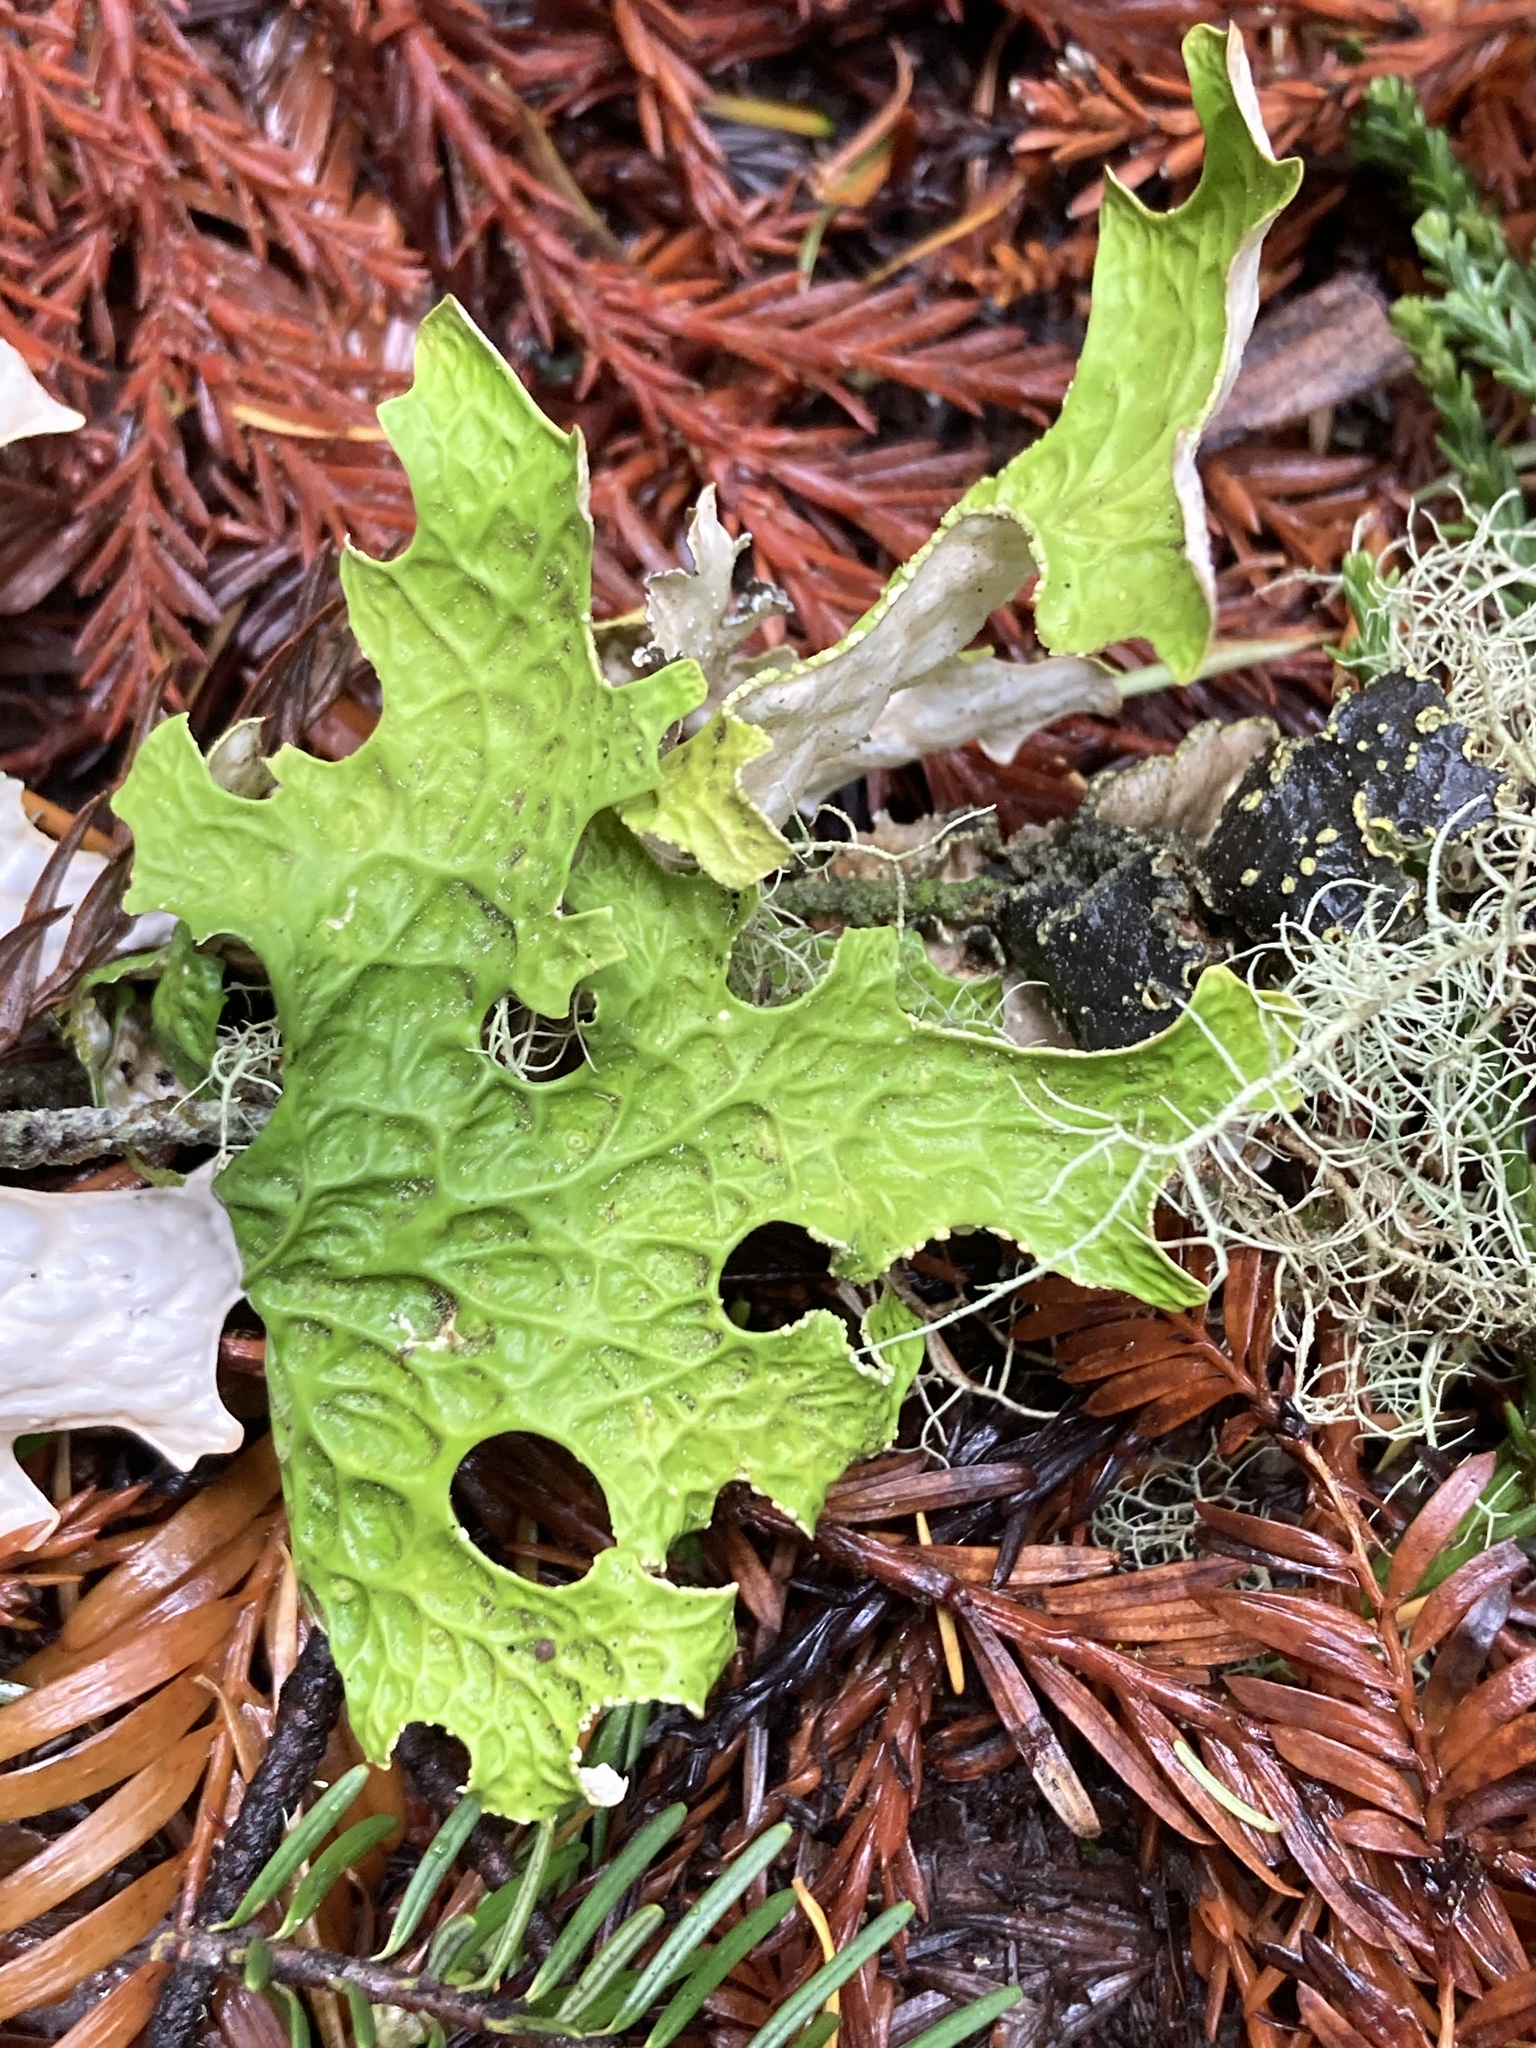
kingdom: Fungi
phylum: Ascomycota
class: Lecanoromycetes
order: Peltigerales
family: Lobariaceae
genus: Lobaria
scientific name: Lobaria pulmonaria
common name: Lungwort
